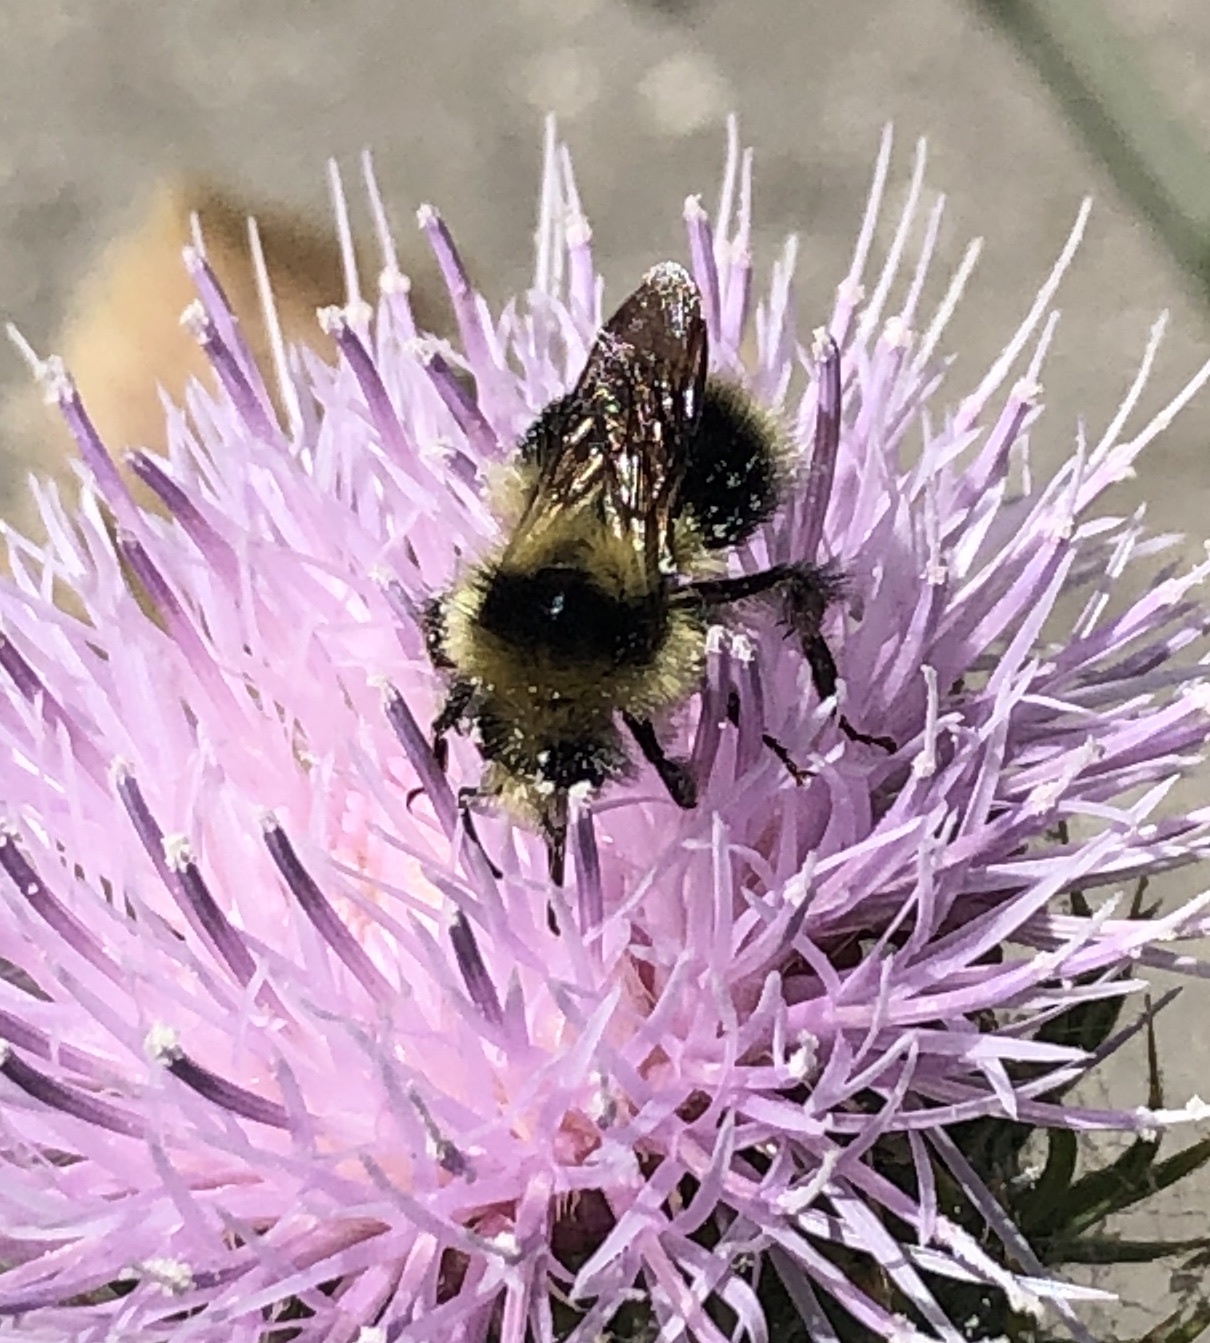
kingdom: Animalia
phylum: Arthropoda
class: Insecta
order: Hymenoptera
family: Apidae
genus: Bombus
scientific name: Bombus melanopygus
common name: Black tail bumble bee
